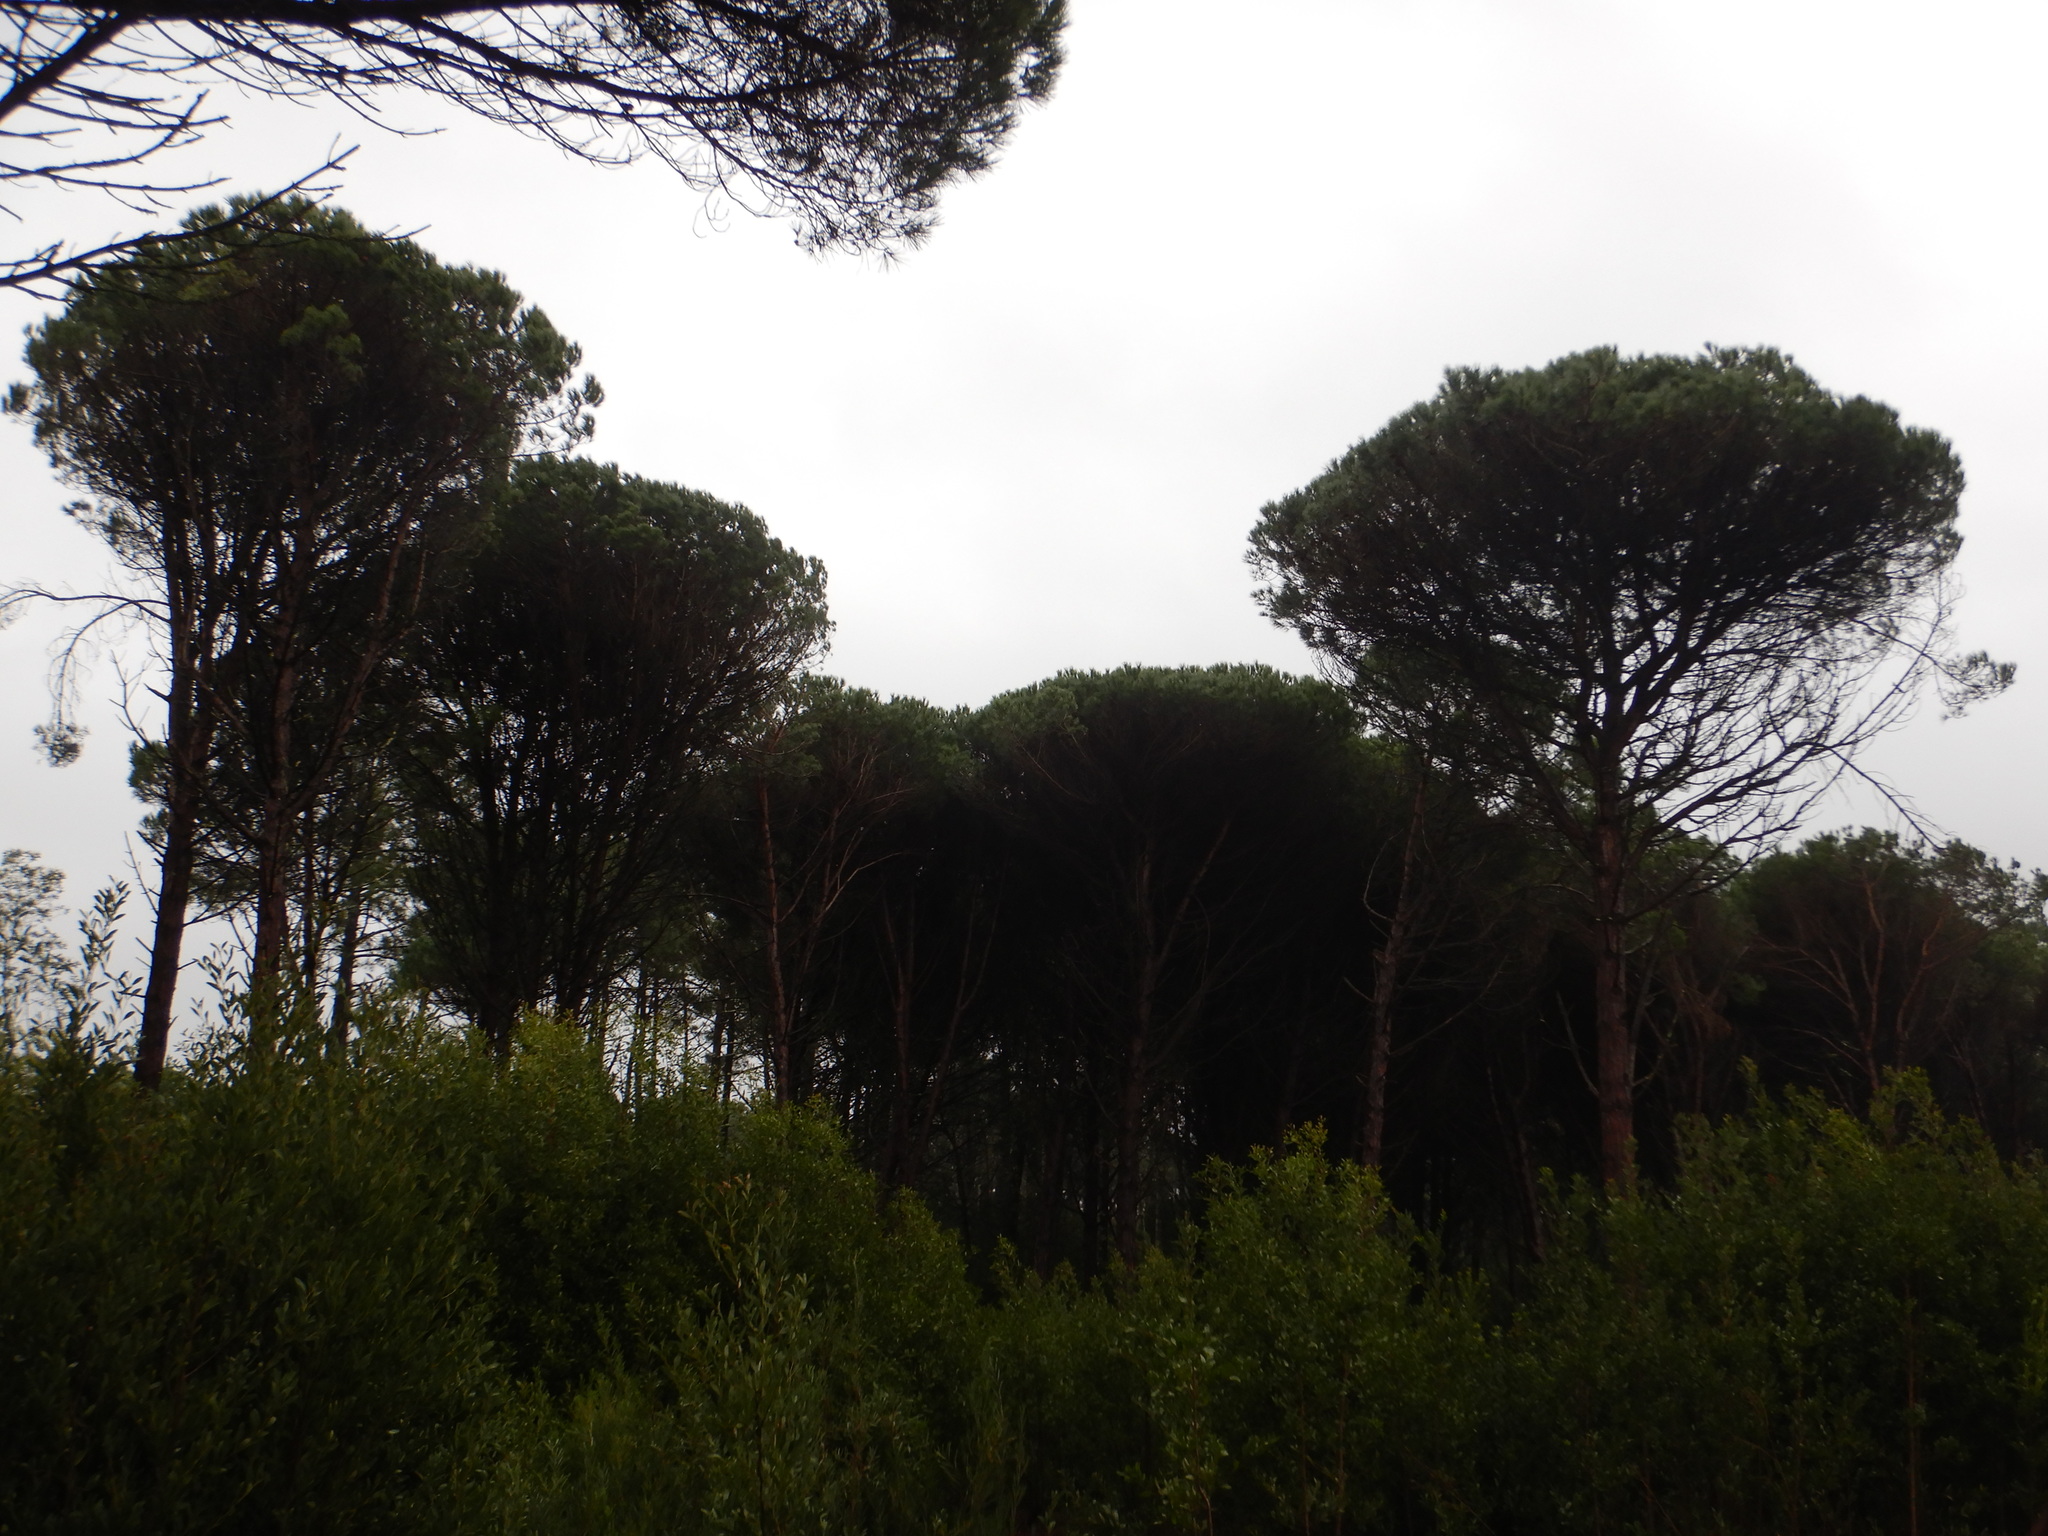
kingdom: Plantae
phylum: Tracheophyta
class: Pinopsida
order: Pinales
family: Pinaceae
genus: Pinus
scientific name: Pinus pinea
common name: Italian stone pine
